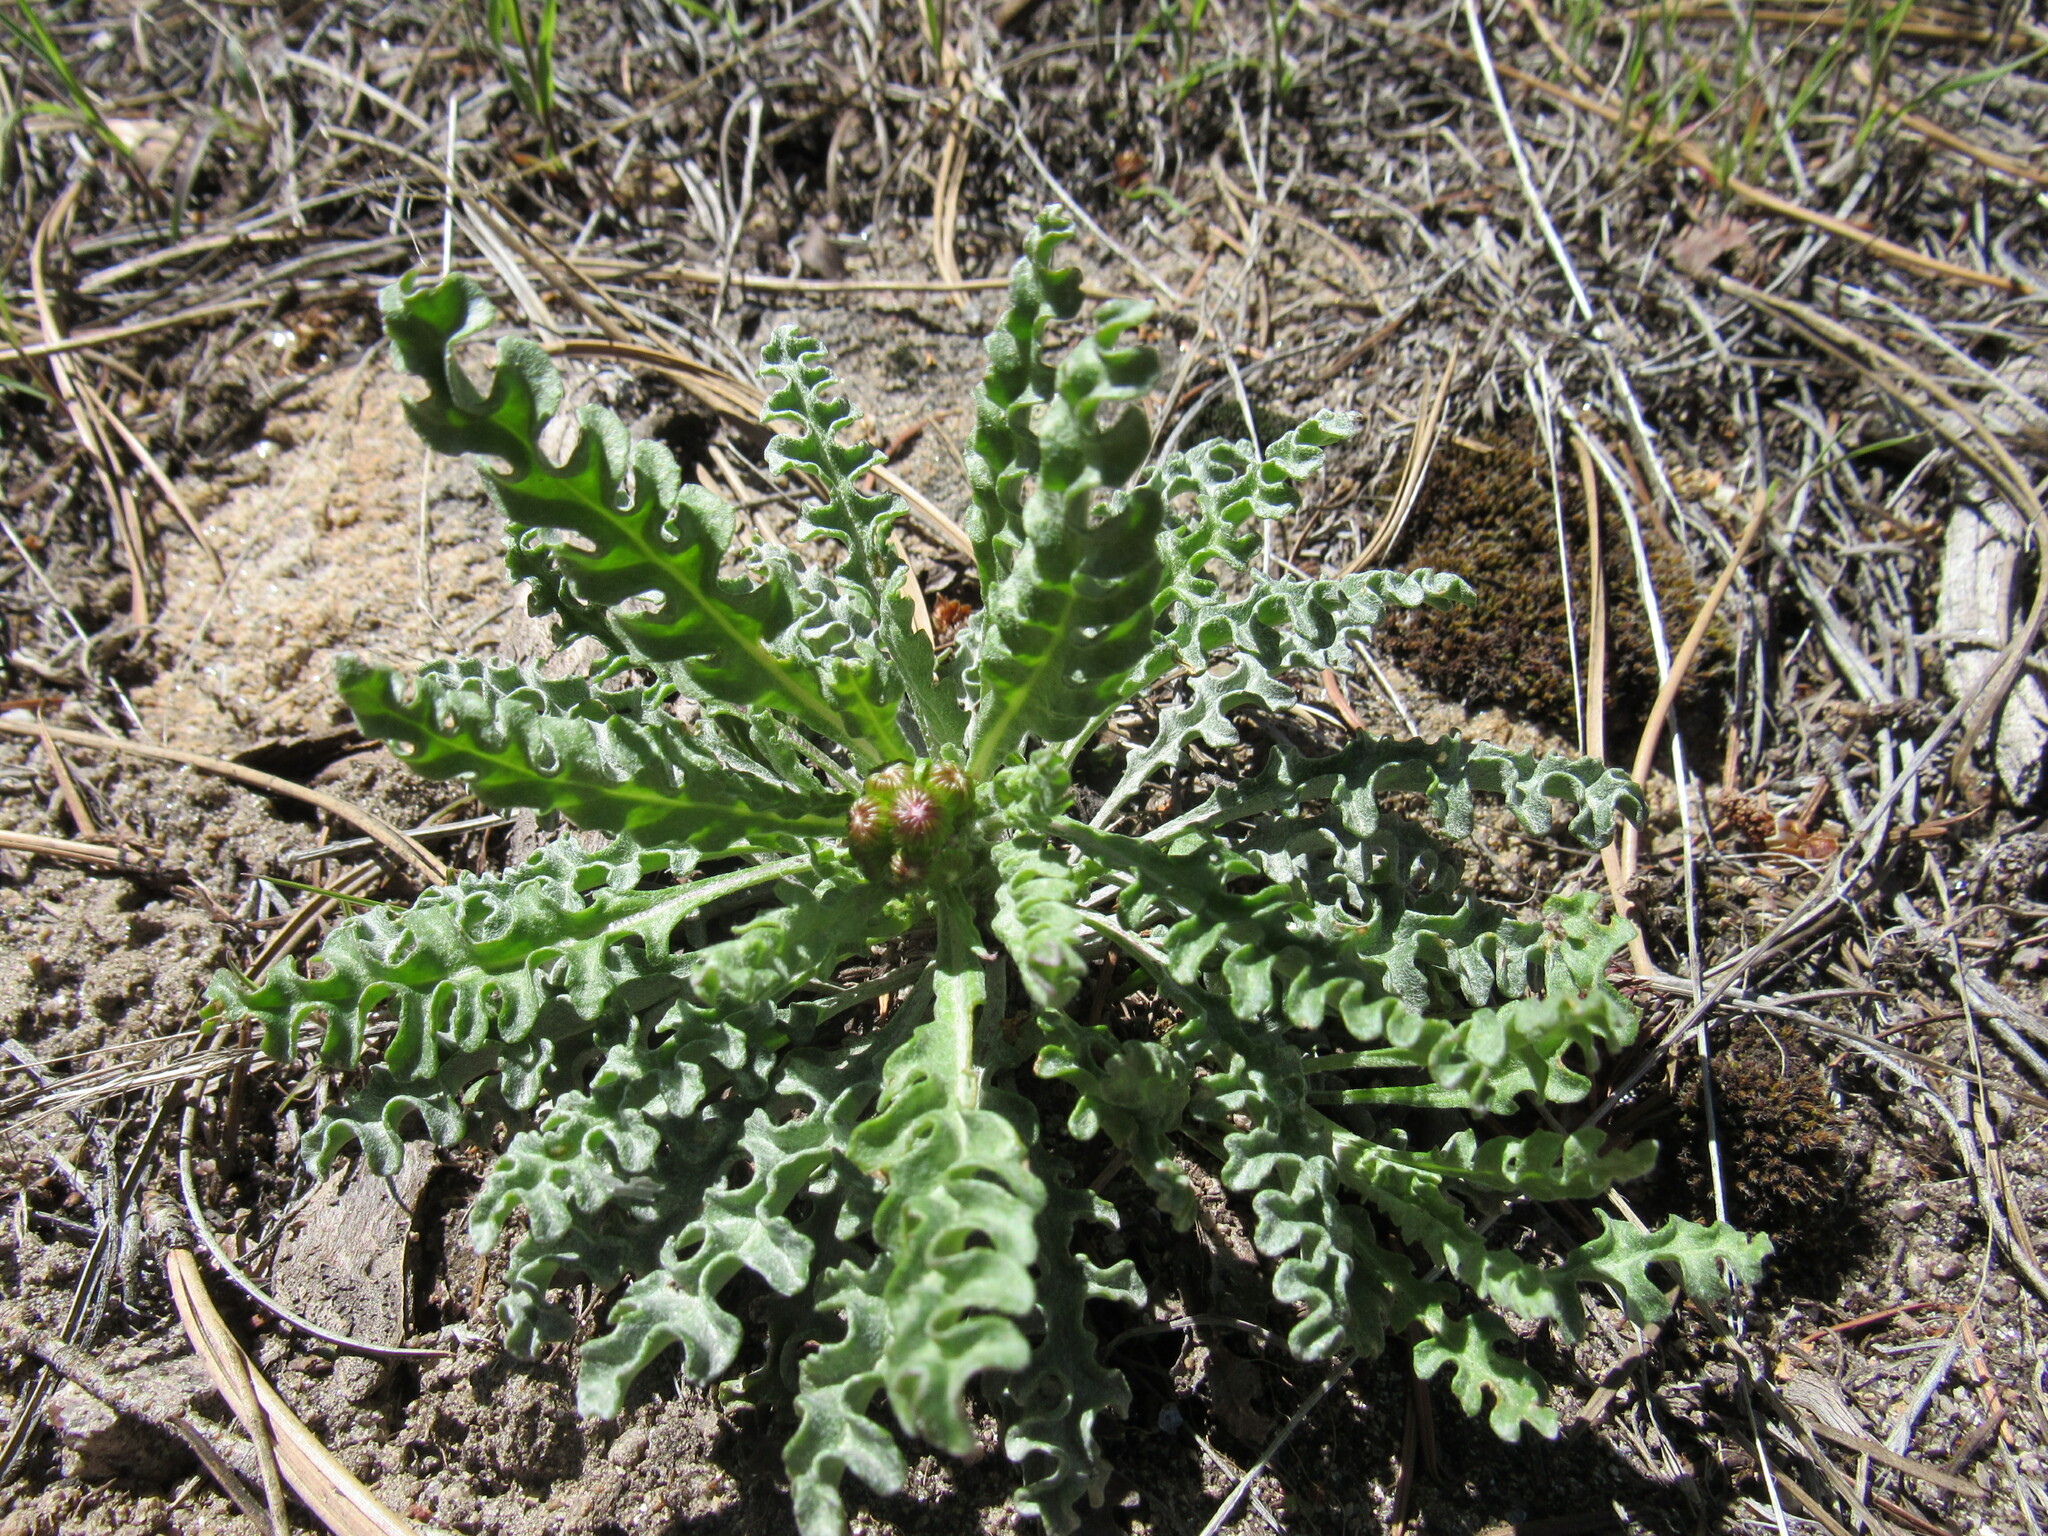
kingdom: Plantae
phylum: Tracheophyta
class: Magnoliopsida
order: Asterales
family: Asteraceae
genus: Packera
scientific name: Packera fendleri
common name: Notch-leaf butterweed
